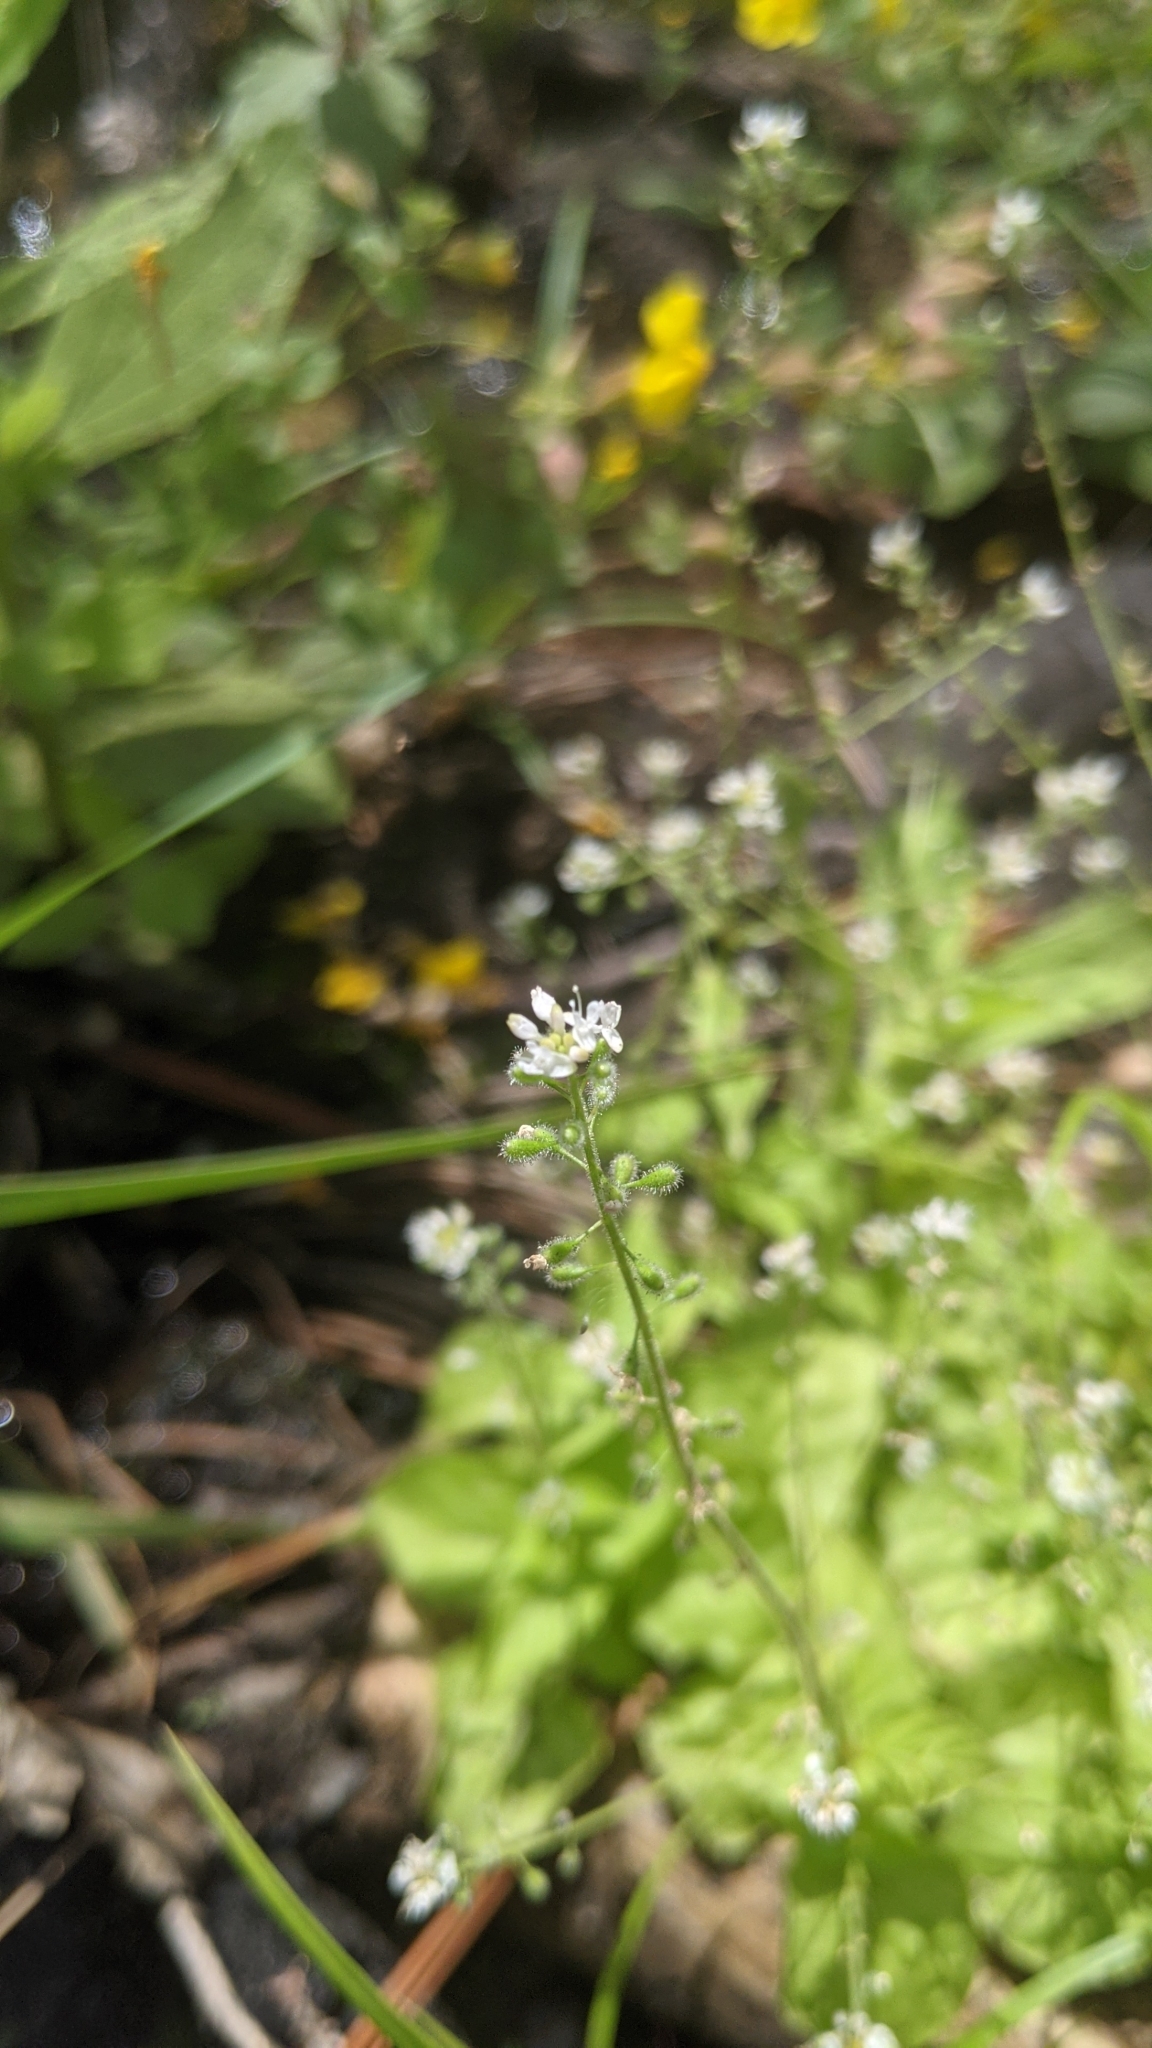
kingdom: Plantae
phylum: Tracheophyta
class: Magnoliopsida
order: Myrtales
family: Onagraceae
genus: Circaea
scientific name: Circaea alpina
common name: Alpine enchanter's-nightshade
